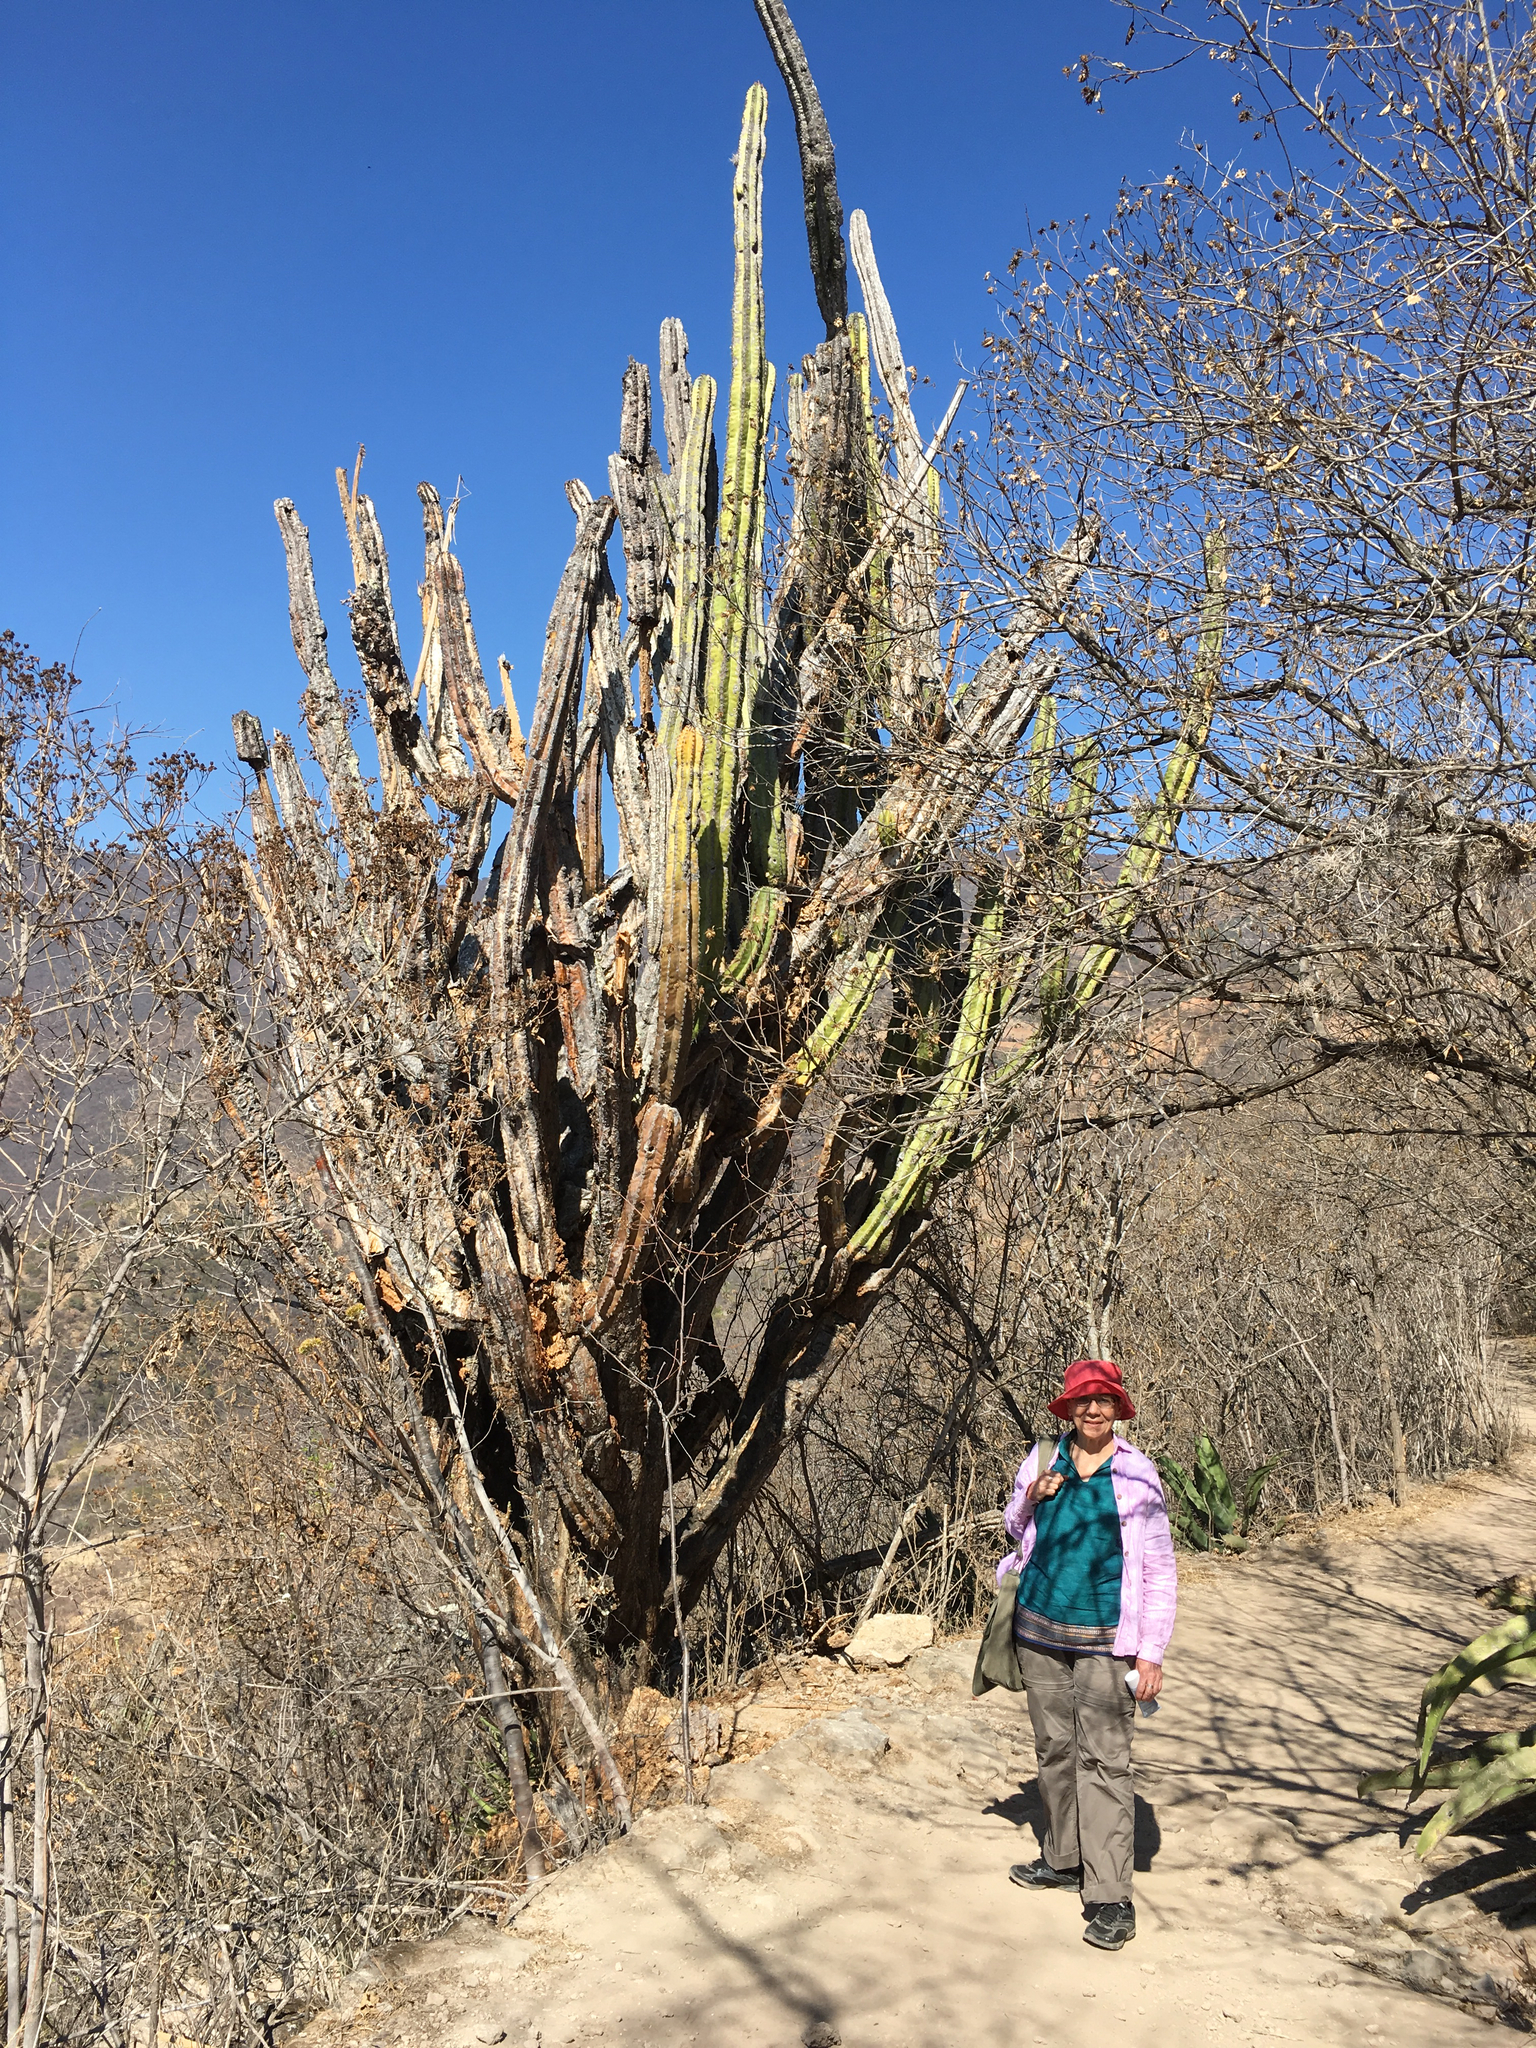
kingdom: Plantae
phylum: Tracheophyta
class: Magnoliopsida
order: Caryophyllales
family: Cactaceae
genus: Stenocereus
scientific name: Stenocereus pruinosus
